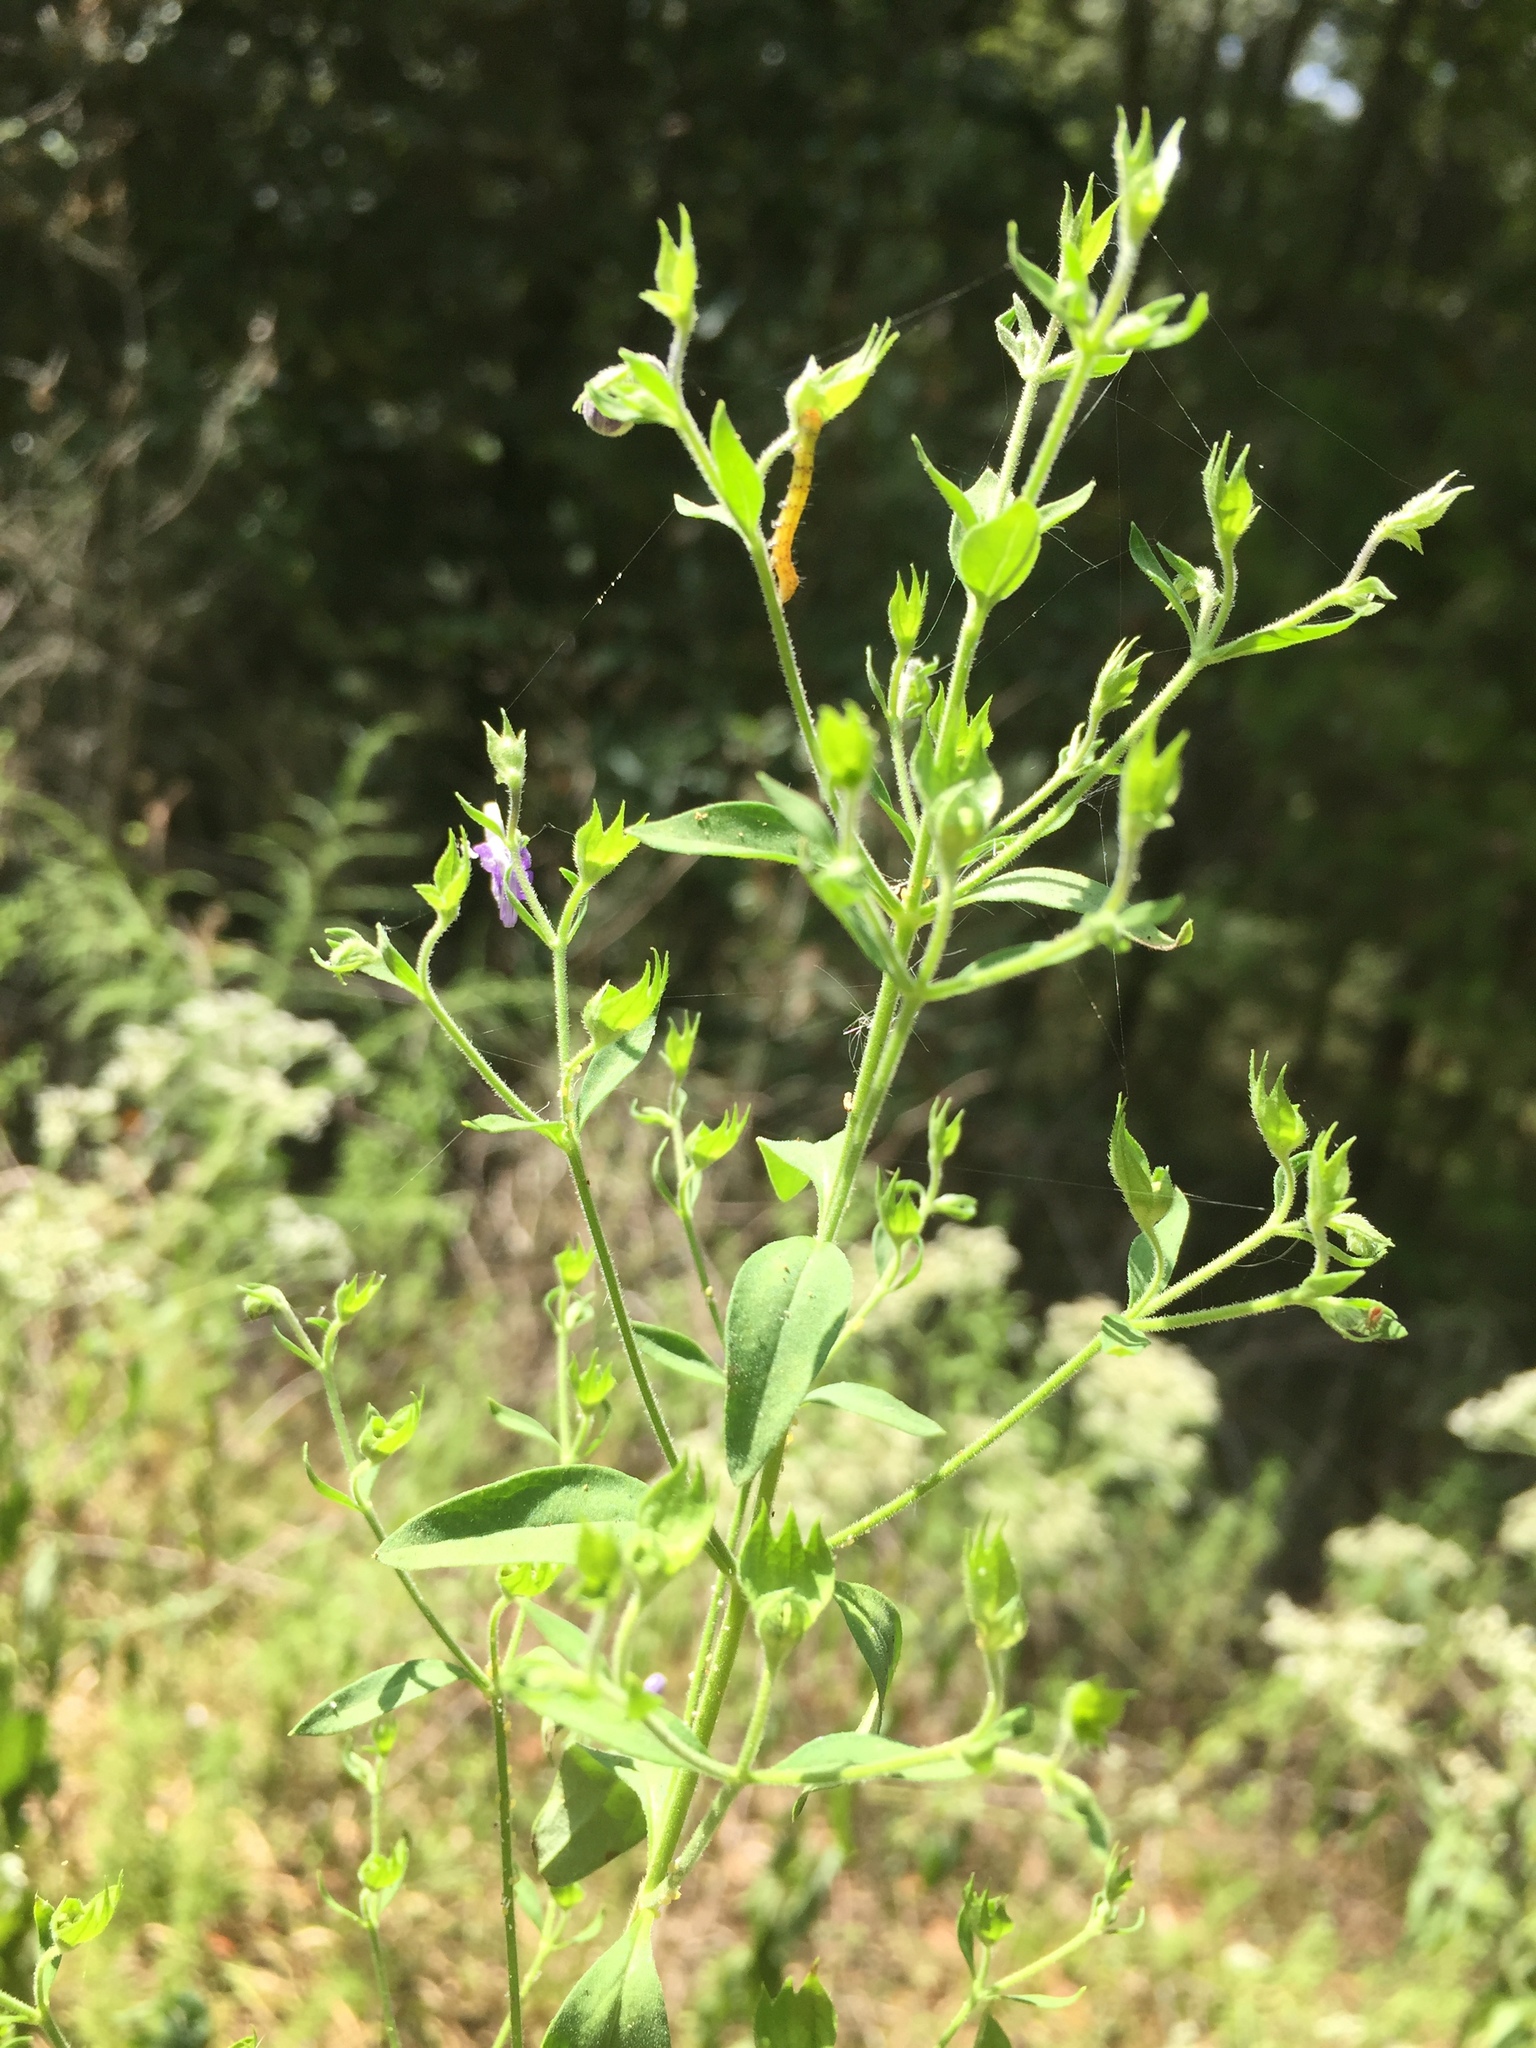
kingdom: Plantae
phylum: Tracheophyta
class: Magnoliopsida
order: Lamiales
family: Lamiaceae
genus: Trichostema
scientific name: Trichostema dichotomum
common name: Bastard pennyroyal
